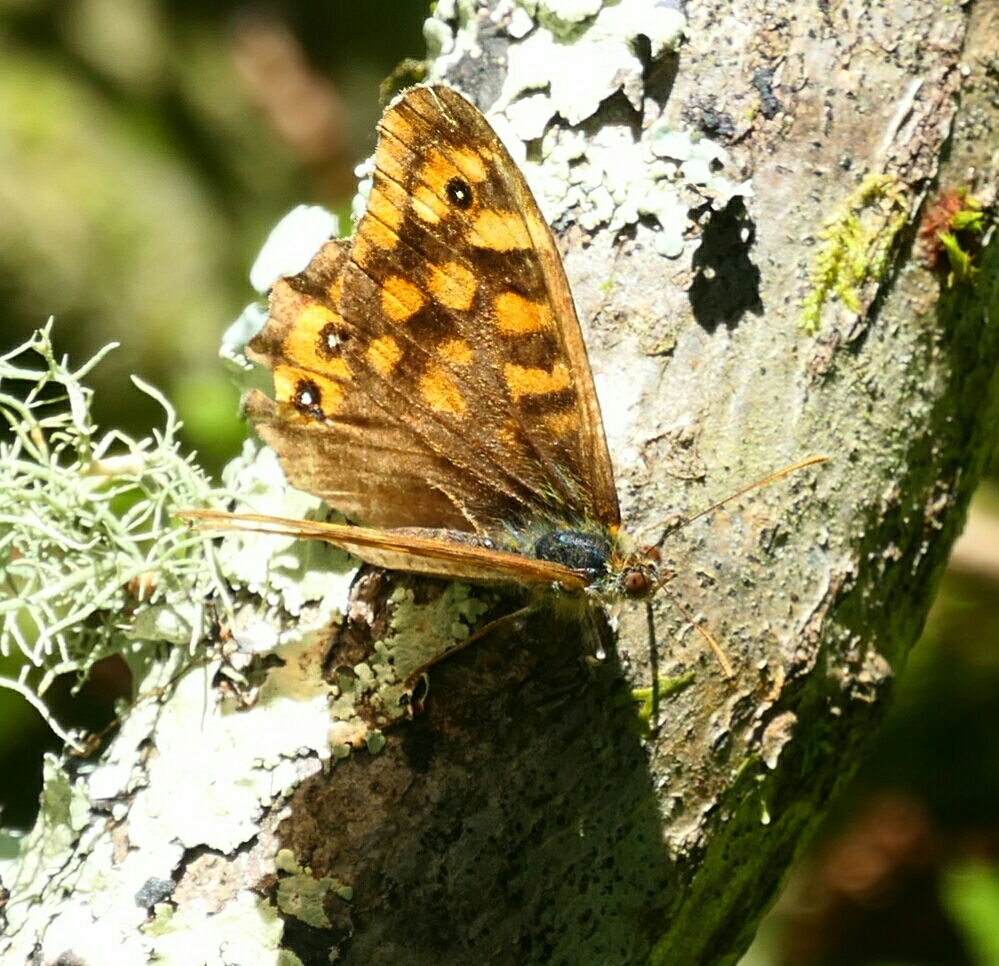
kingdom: Animalia
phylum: Arthropoda
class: Insecta
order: Lepidoptera
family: Nymphalidae
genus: Pararge
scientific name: Pararge aegeria
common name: Speckled wood
